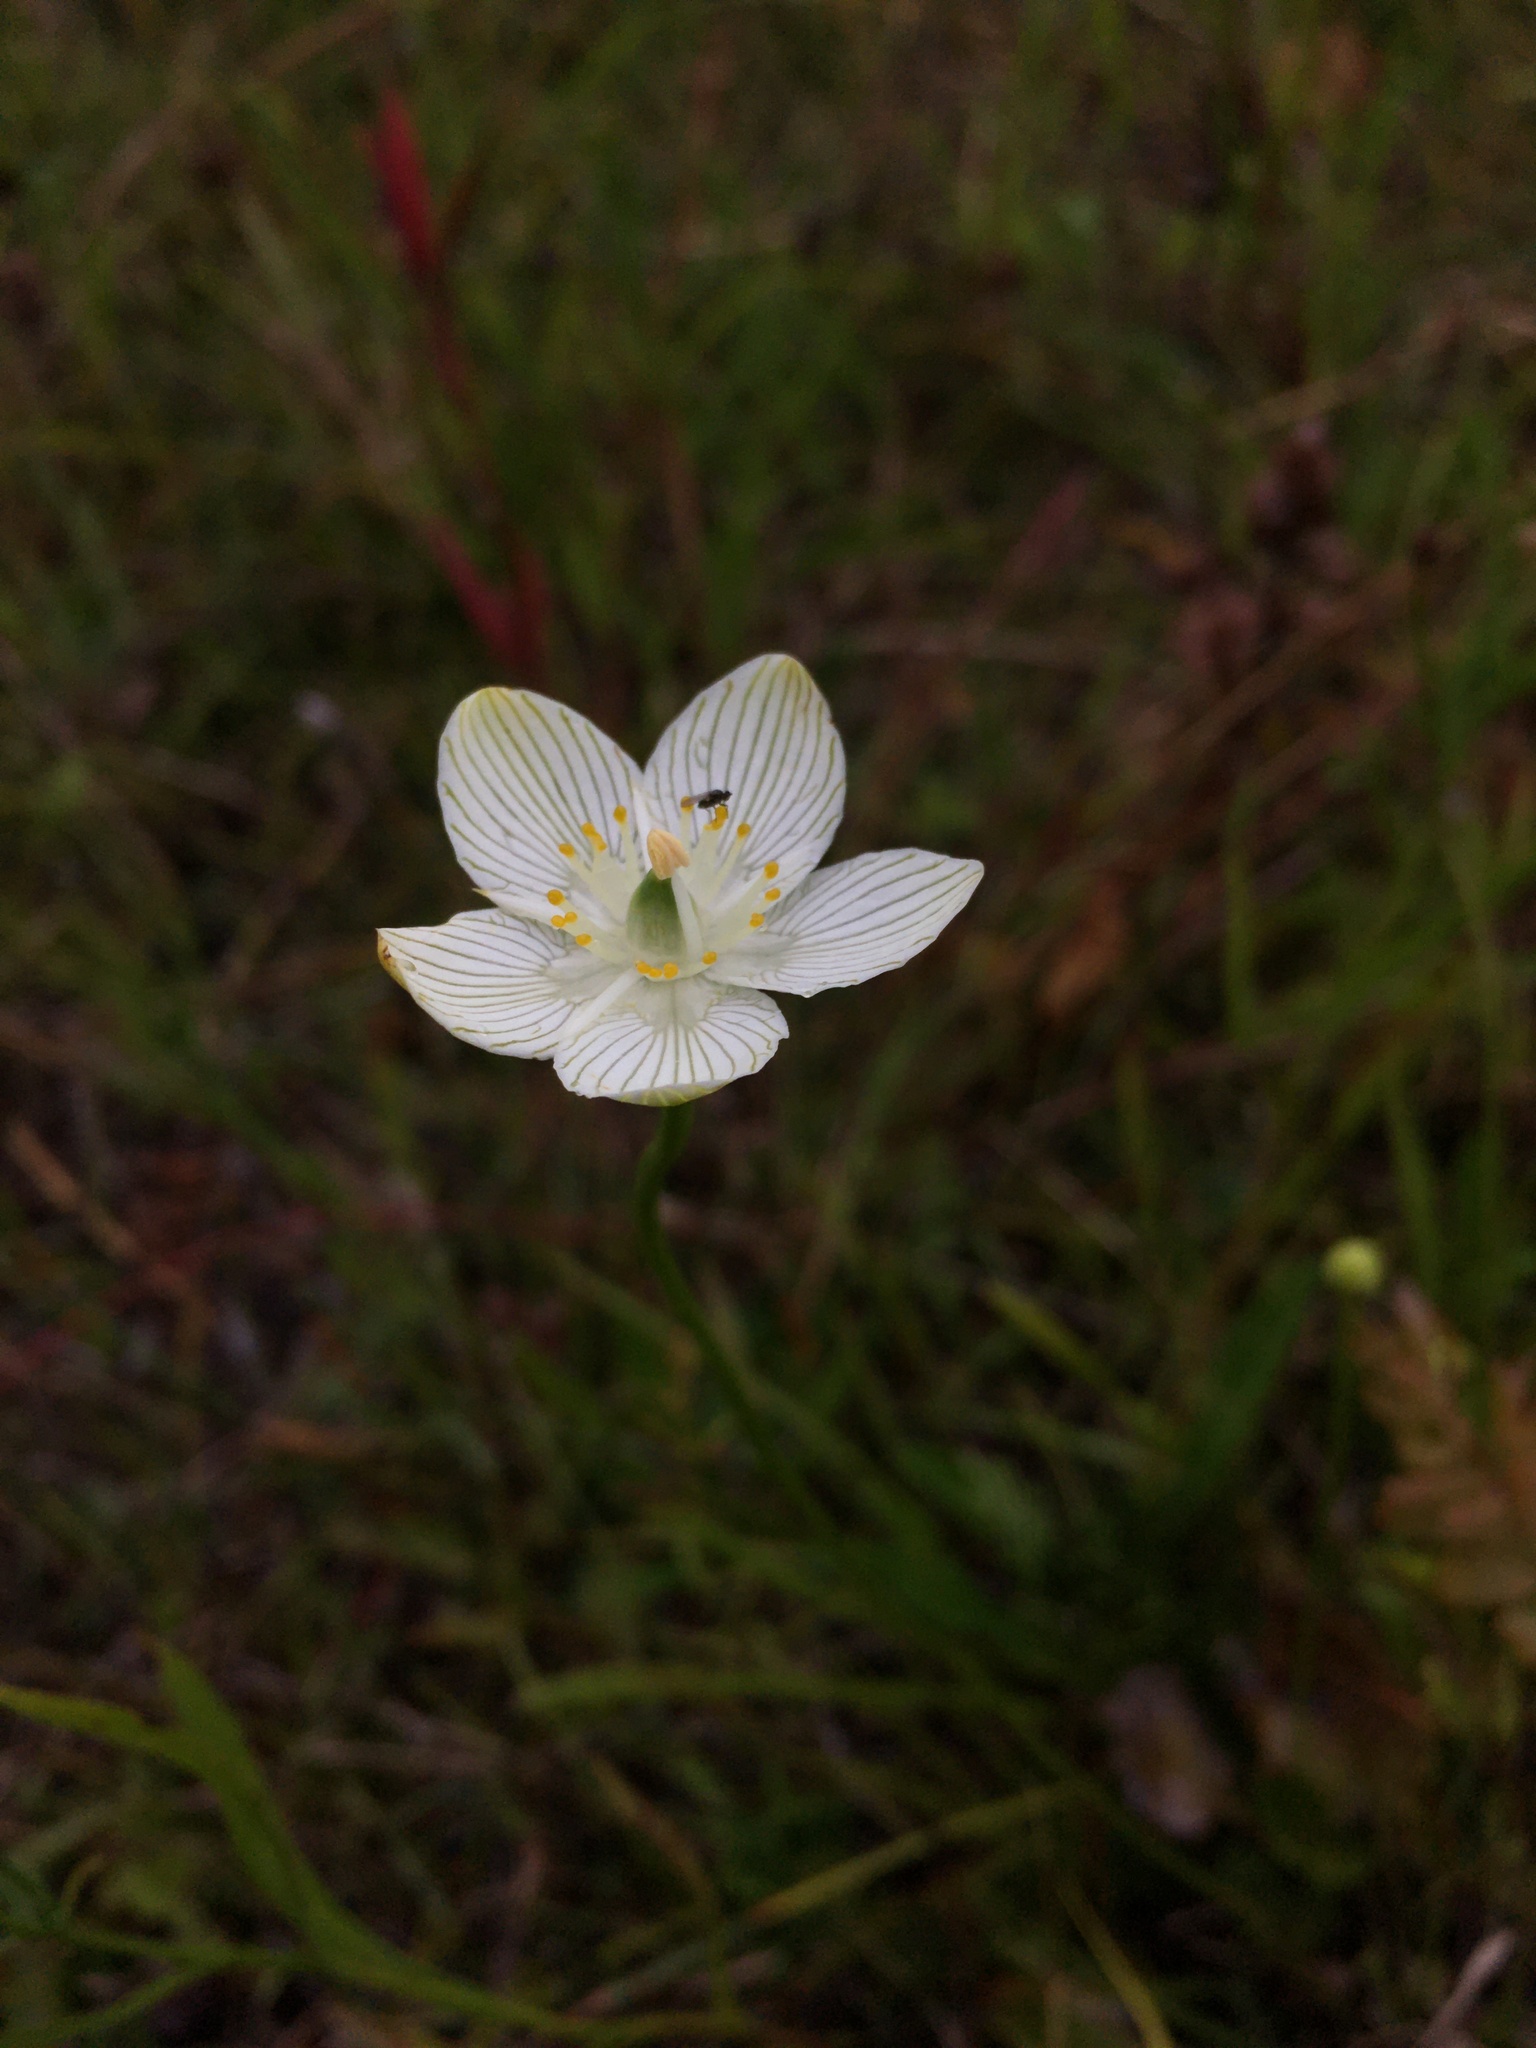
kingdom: Plantae
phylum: Tracheophyta
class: Magnoliopsida
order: Celastrales
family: Parnassiaceae
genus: Parnassia
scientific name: Parnassia glauca
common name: American grass-of-parnassus
